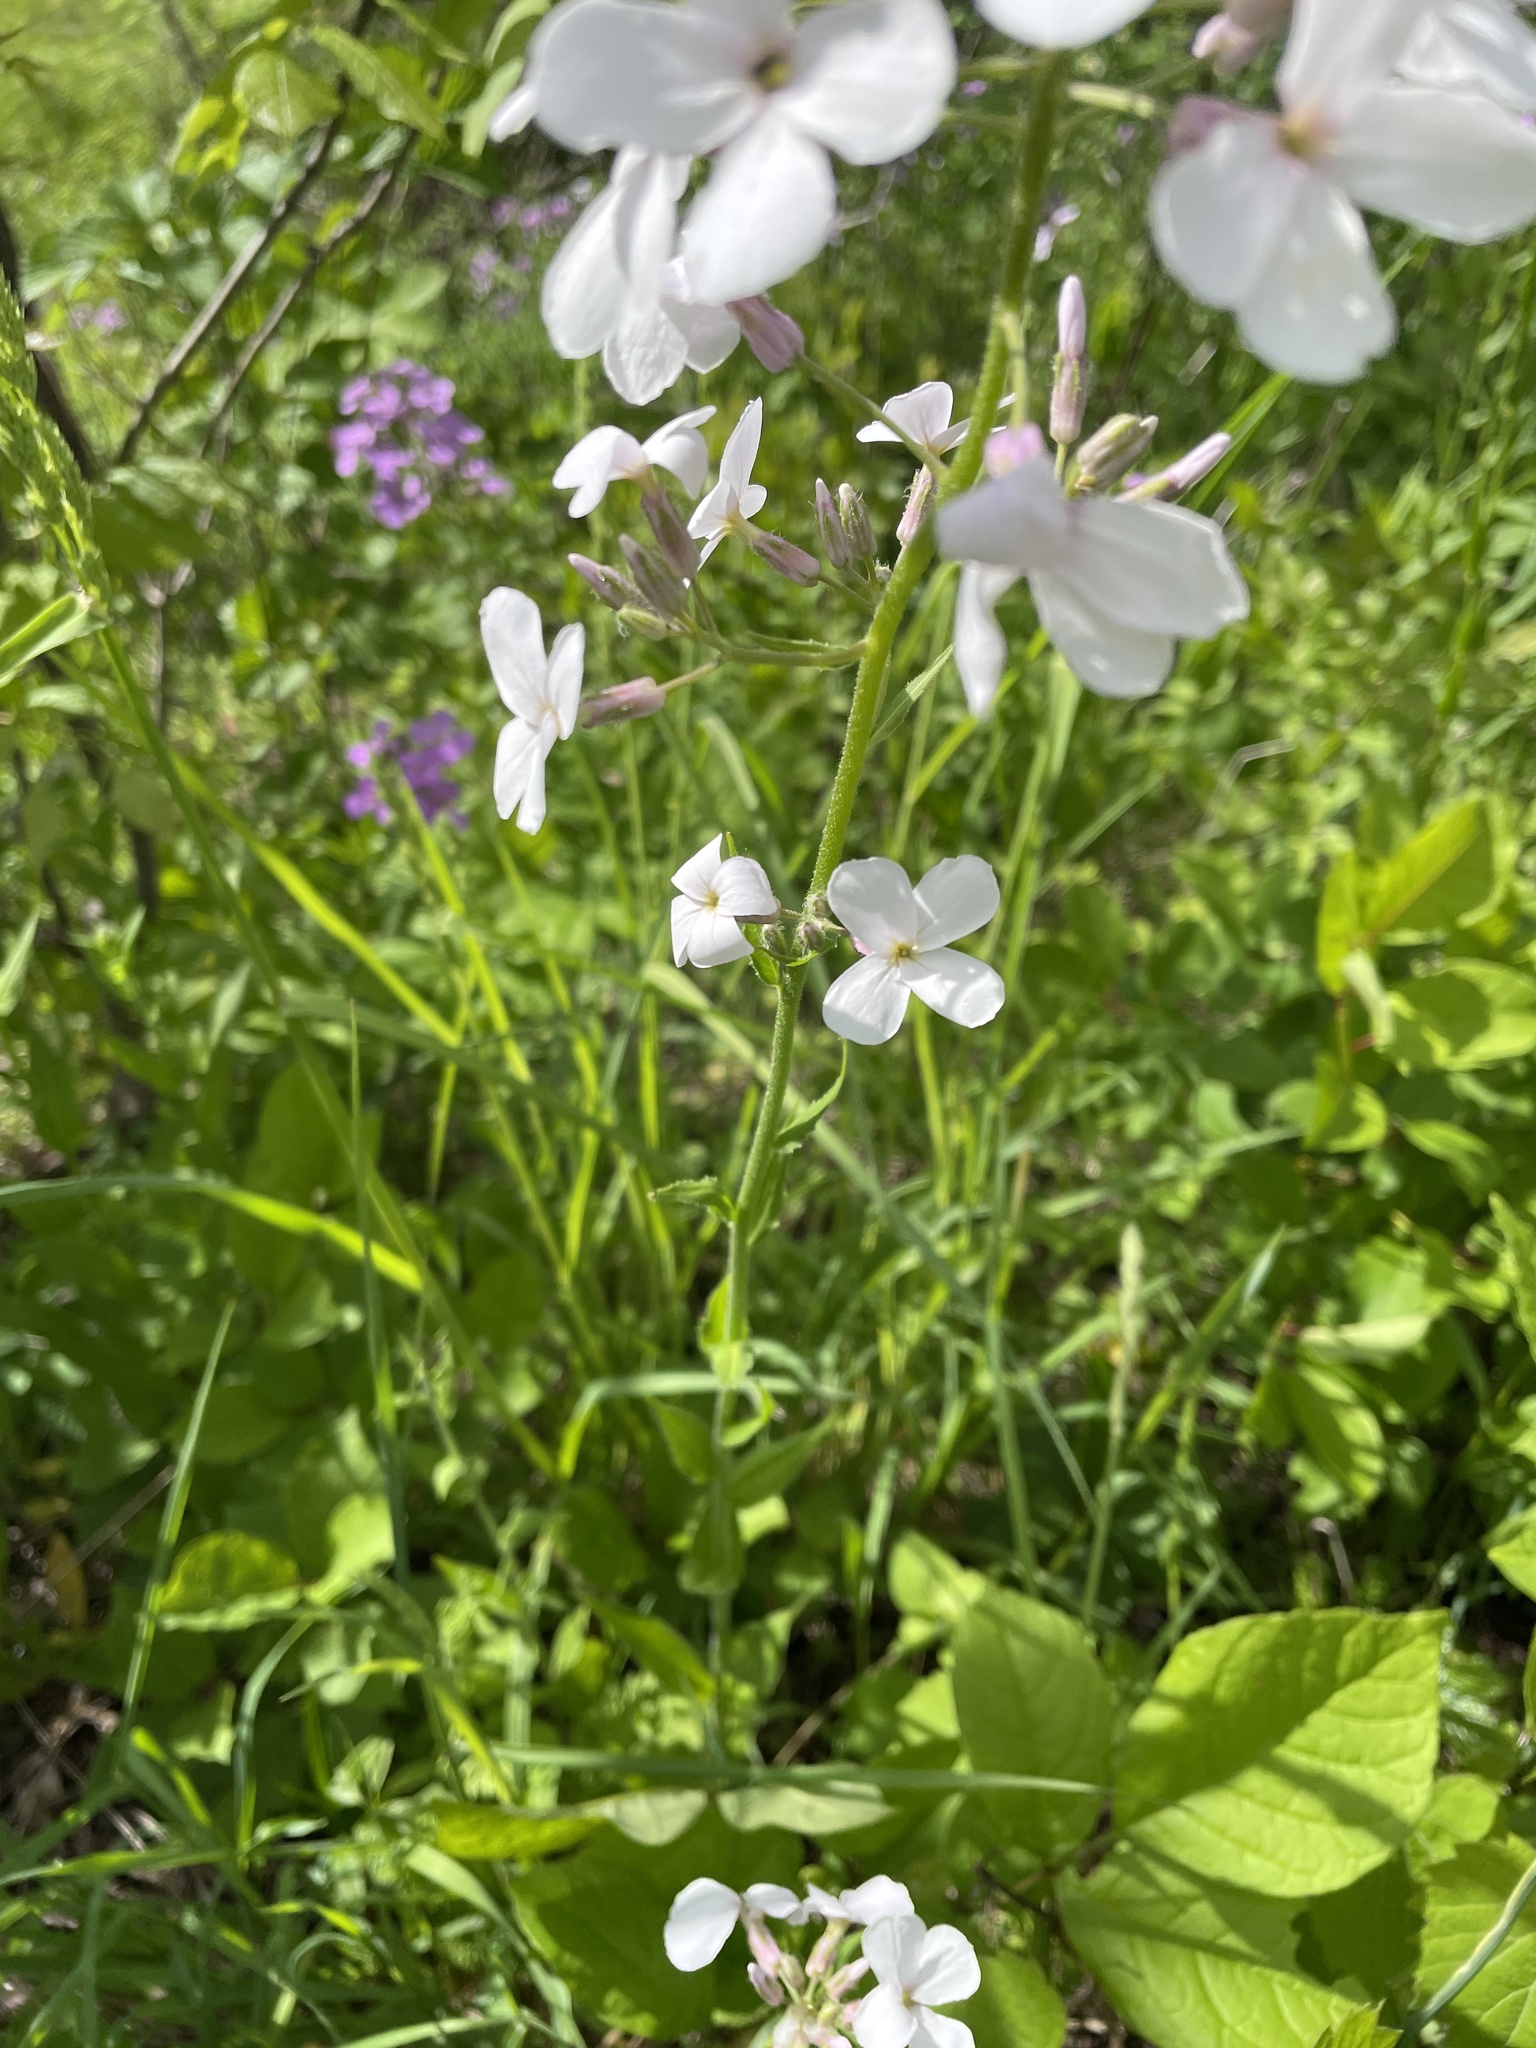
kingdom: Plantae
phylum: Tracheophyta
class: Magnoliopsida
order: Brassicales
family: Brassicaceae
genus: Hesperis
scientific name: Hesperis matronalis
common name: Dame's-violet
